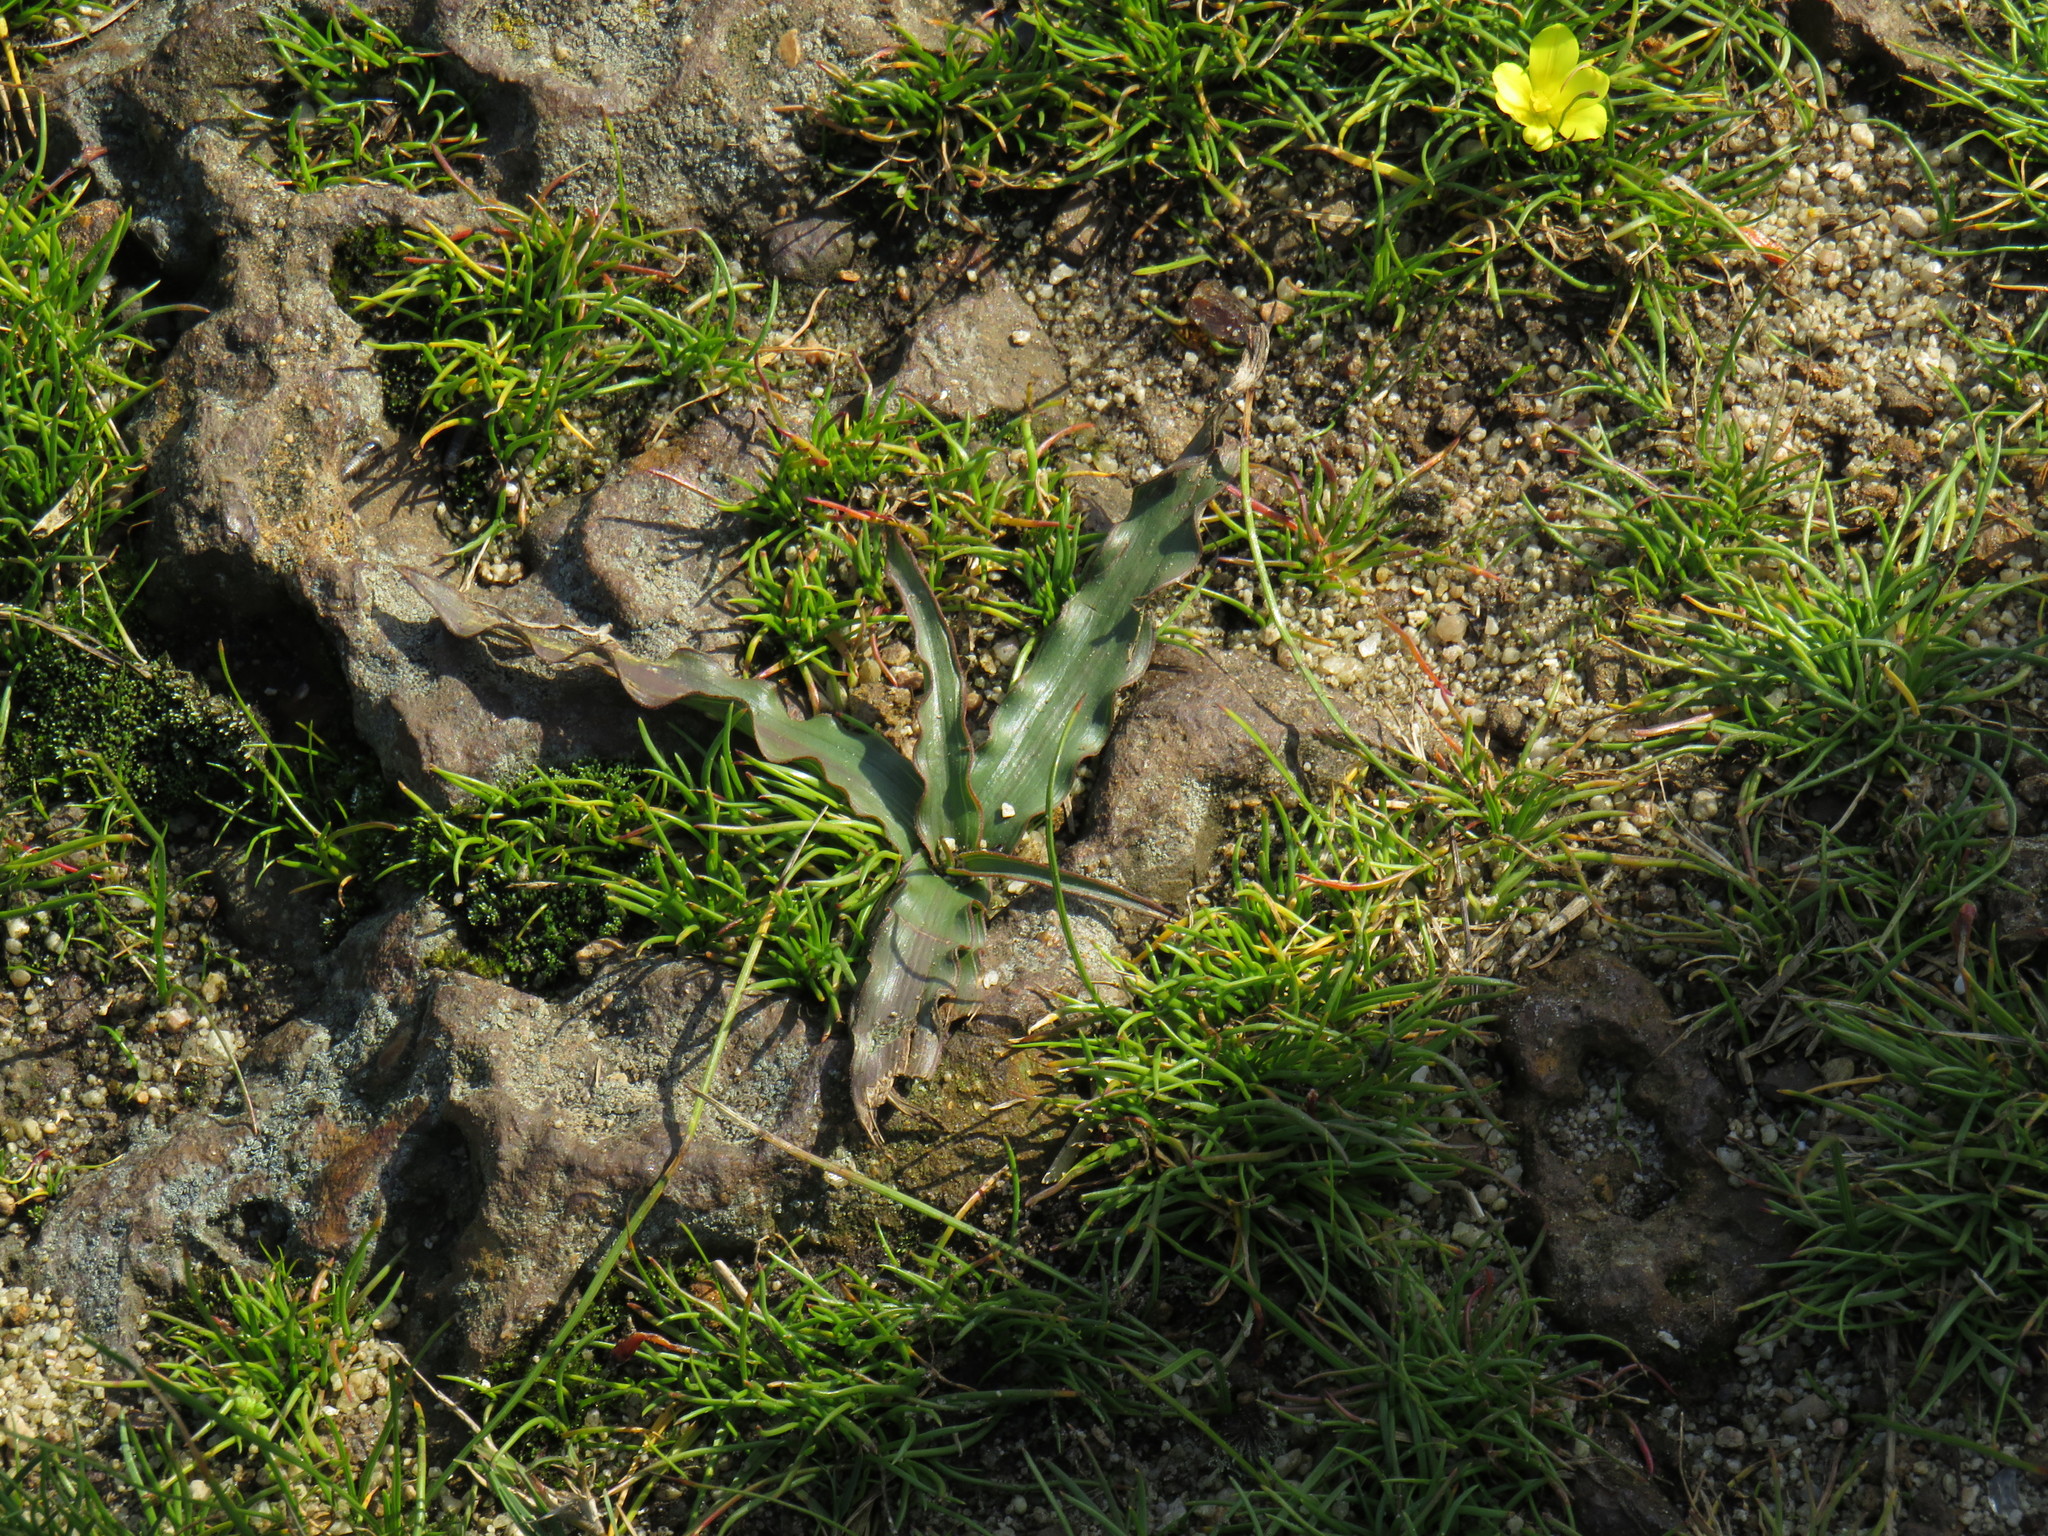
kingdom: Plantae
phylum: Tracheophyta
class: Liliopsida
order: Asparagales
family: Tecophilaeaceae
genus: Cyanella
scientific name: Cyanella hyacinthoides
